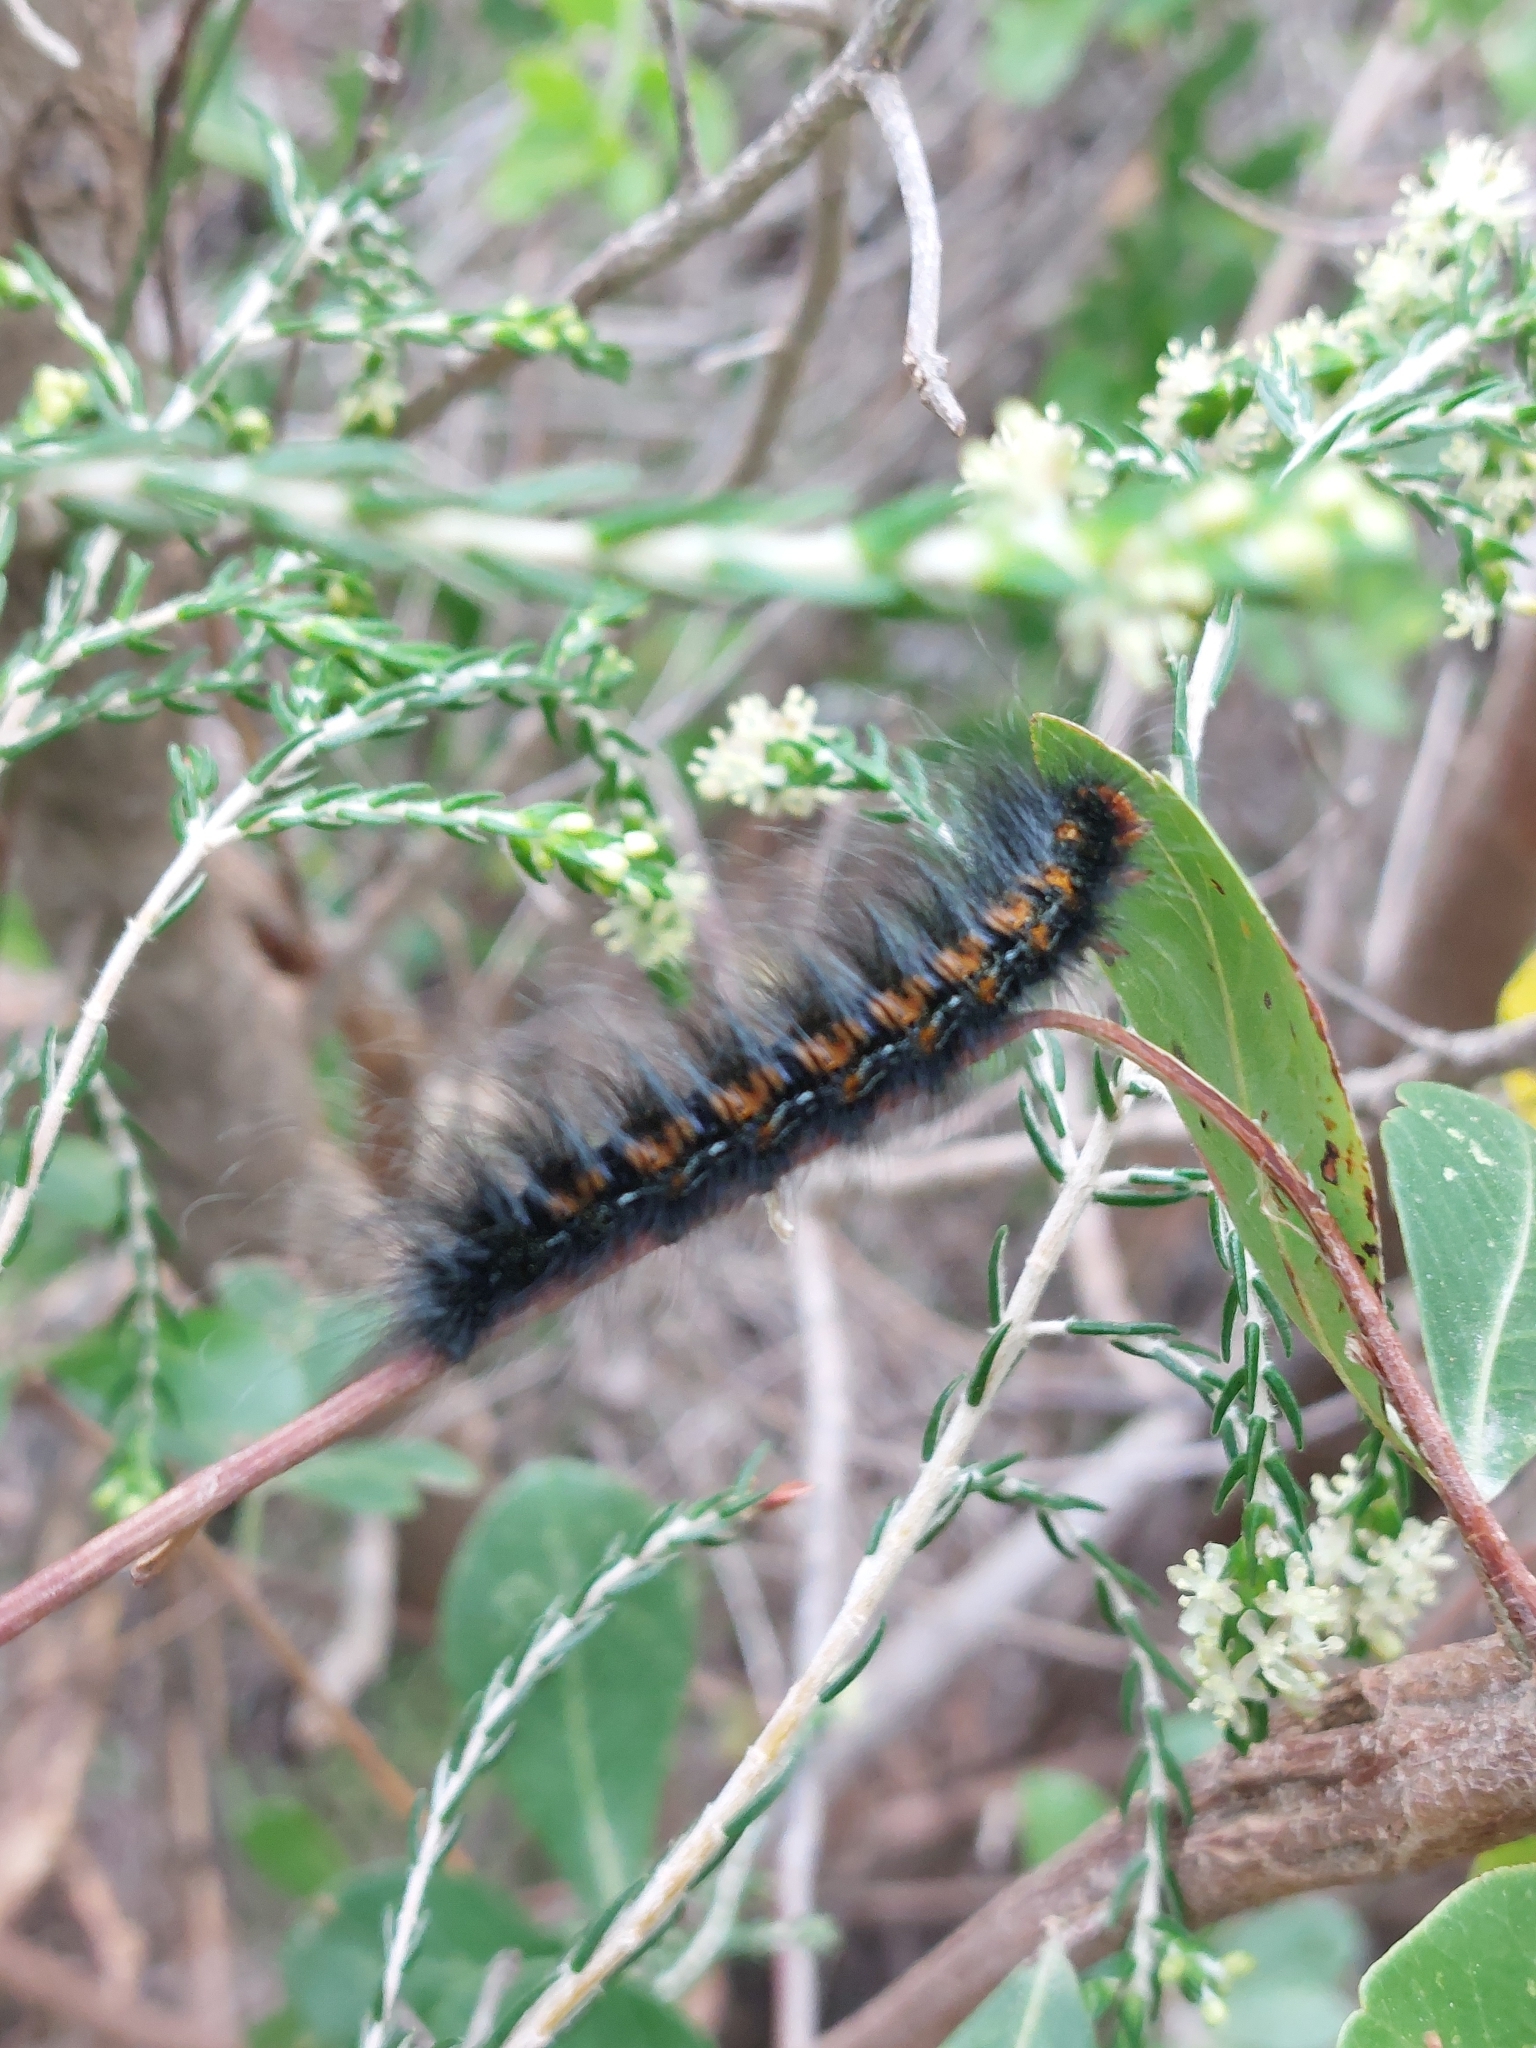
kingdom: Animalia
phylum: Arthropoda
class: Insecta
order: Lepidoptera
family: Lasiocampidae
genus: Mesocelis
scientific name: Mesocelis monticola
